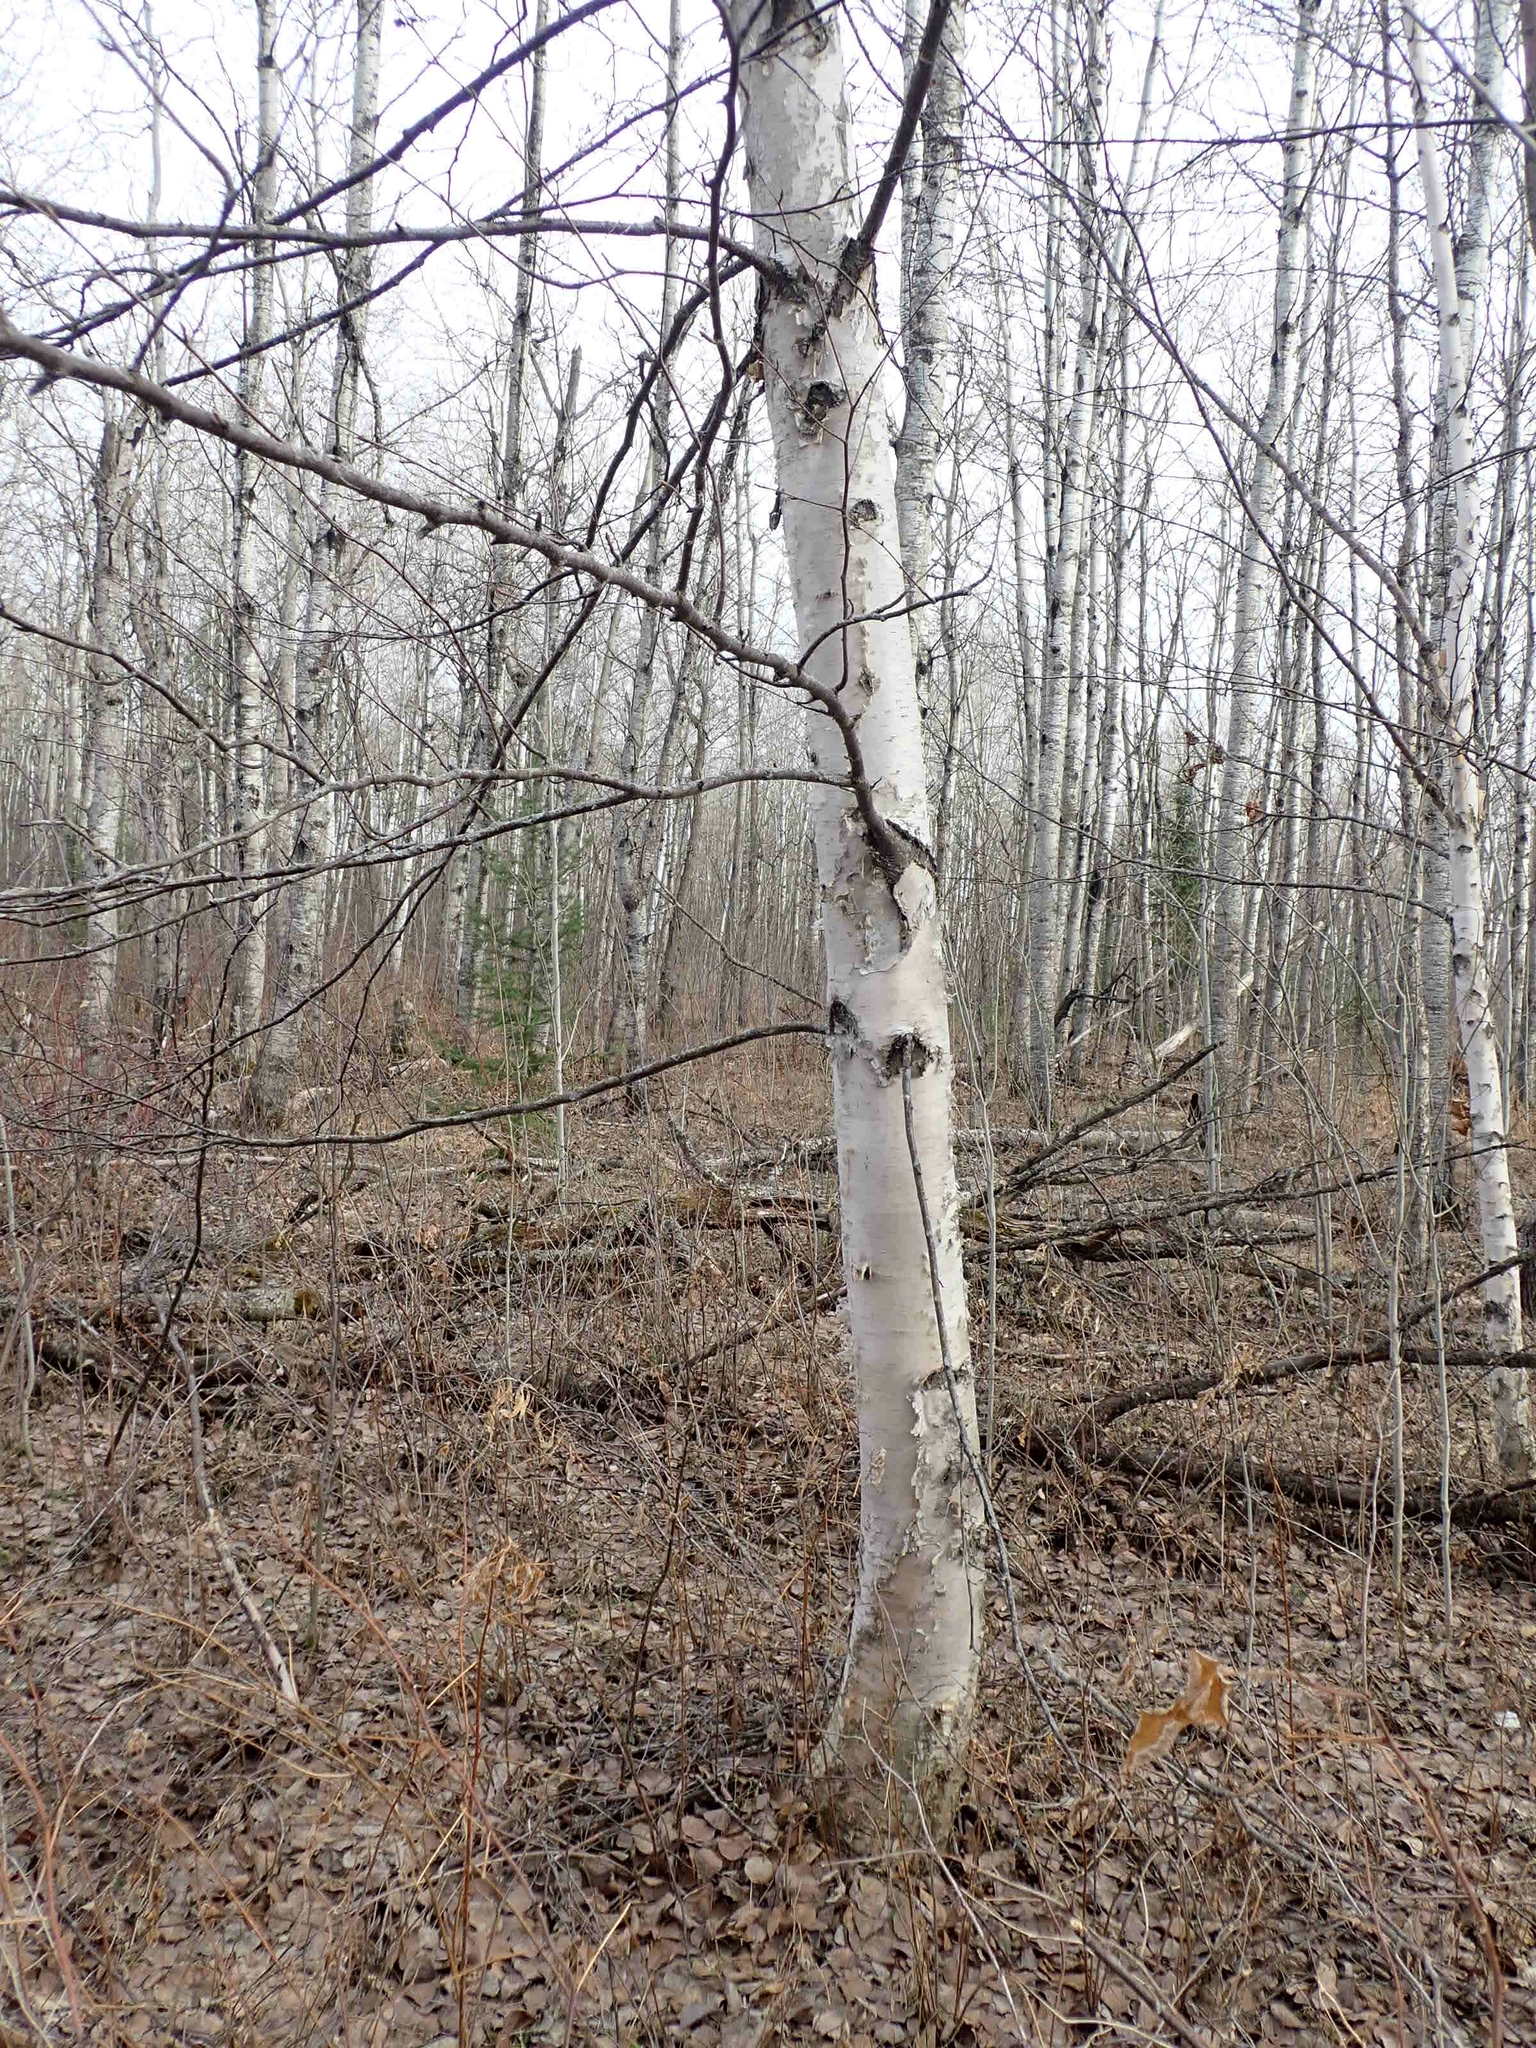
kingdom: Plantae
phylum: Tracheophyta
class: Magnoliopsida
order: Fagales
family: Betulaceae
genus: Betula
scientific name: Betula papyrifera
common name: Paper birch
